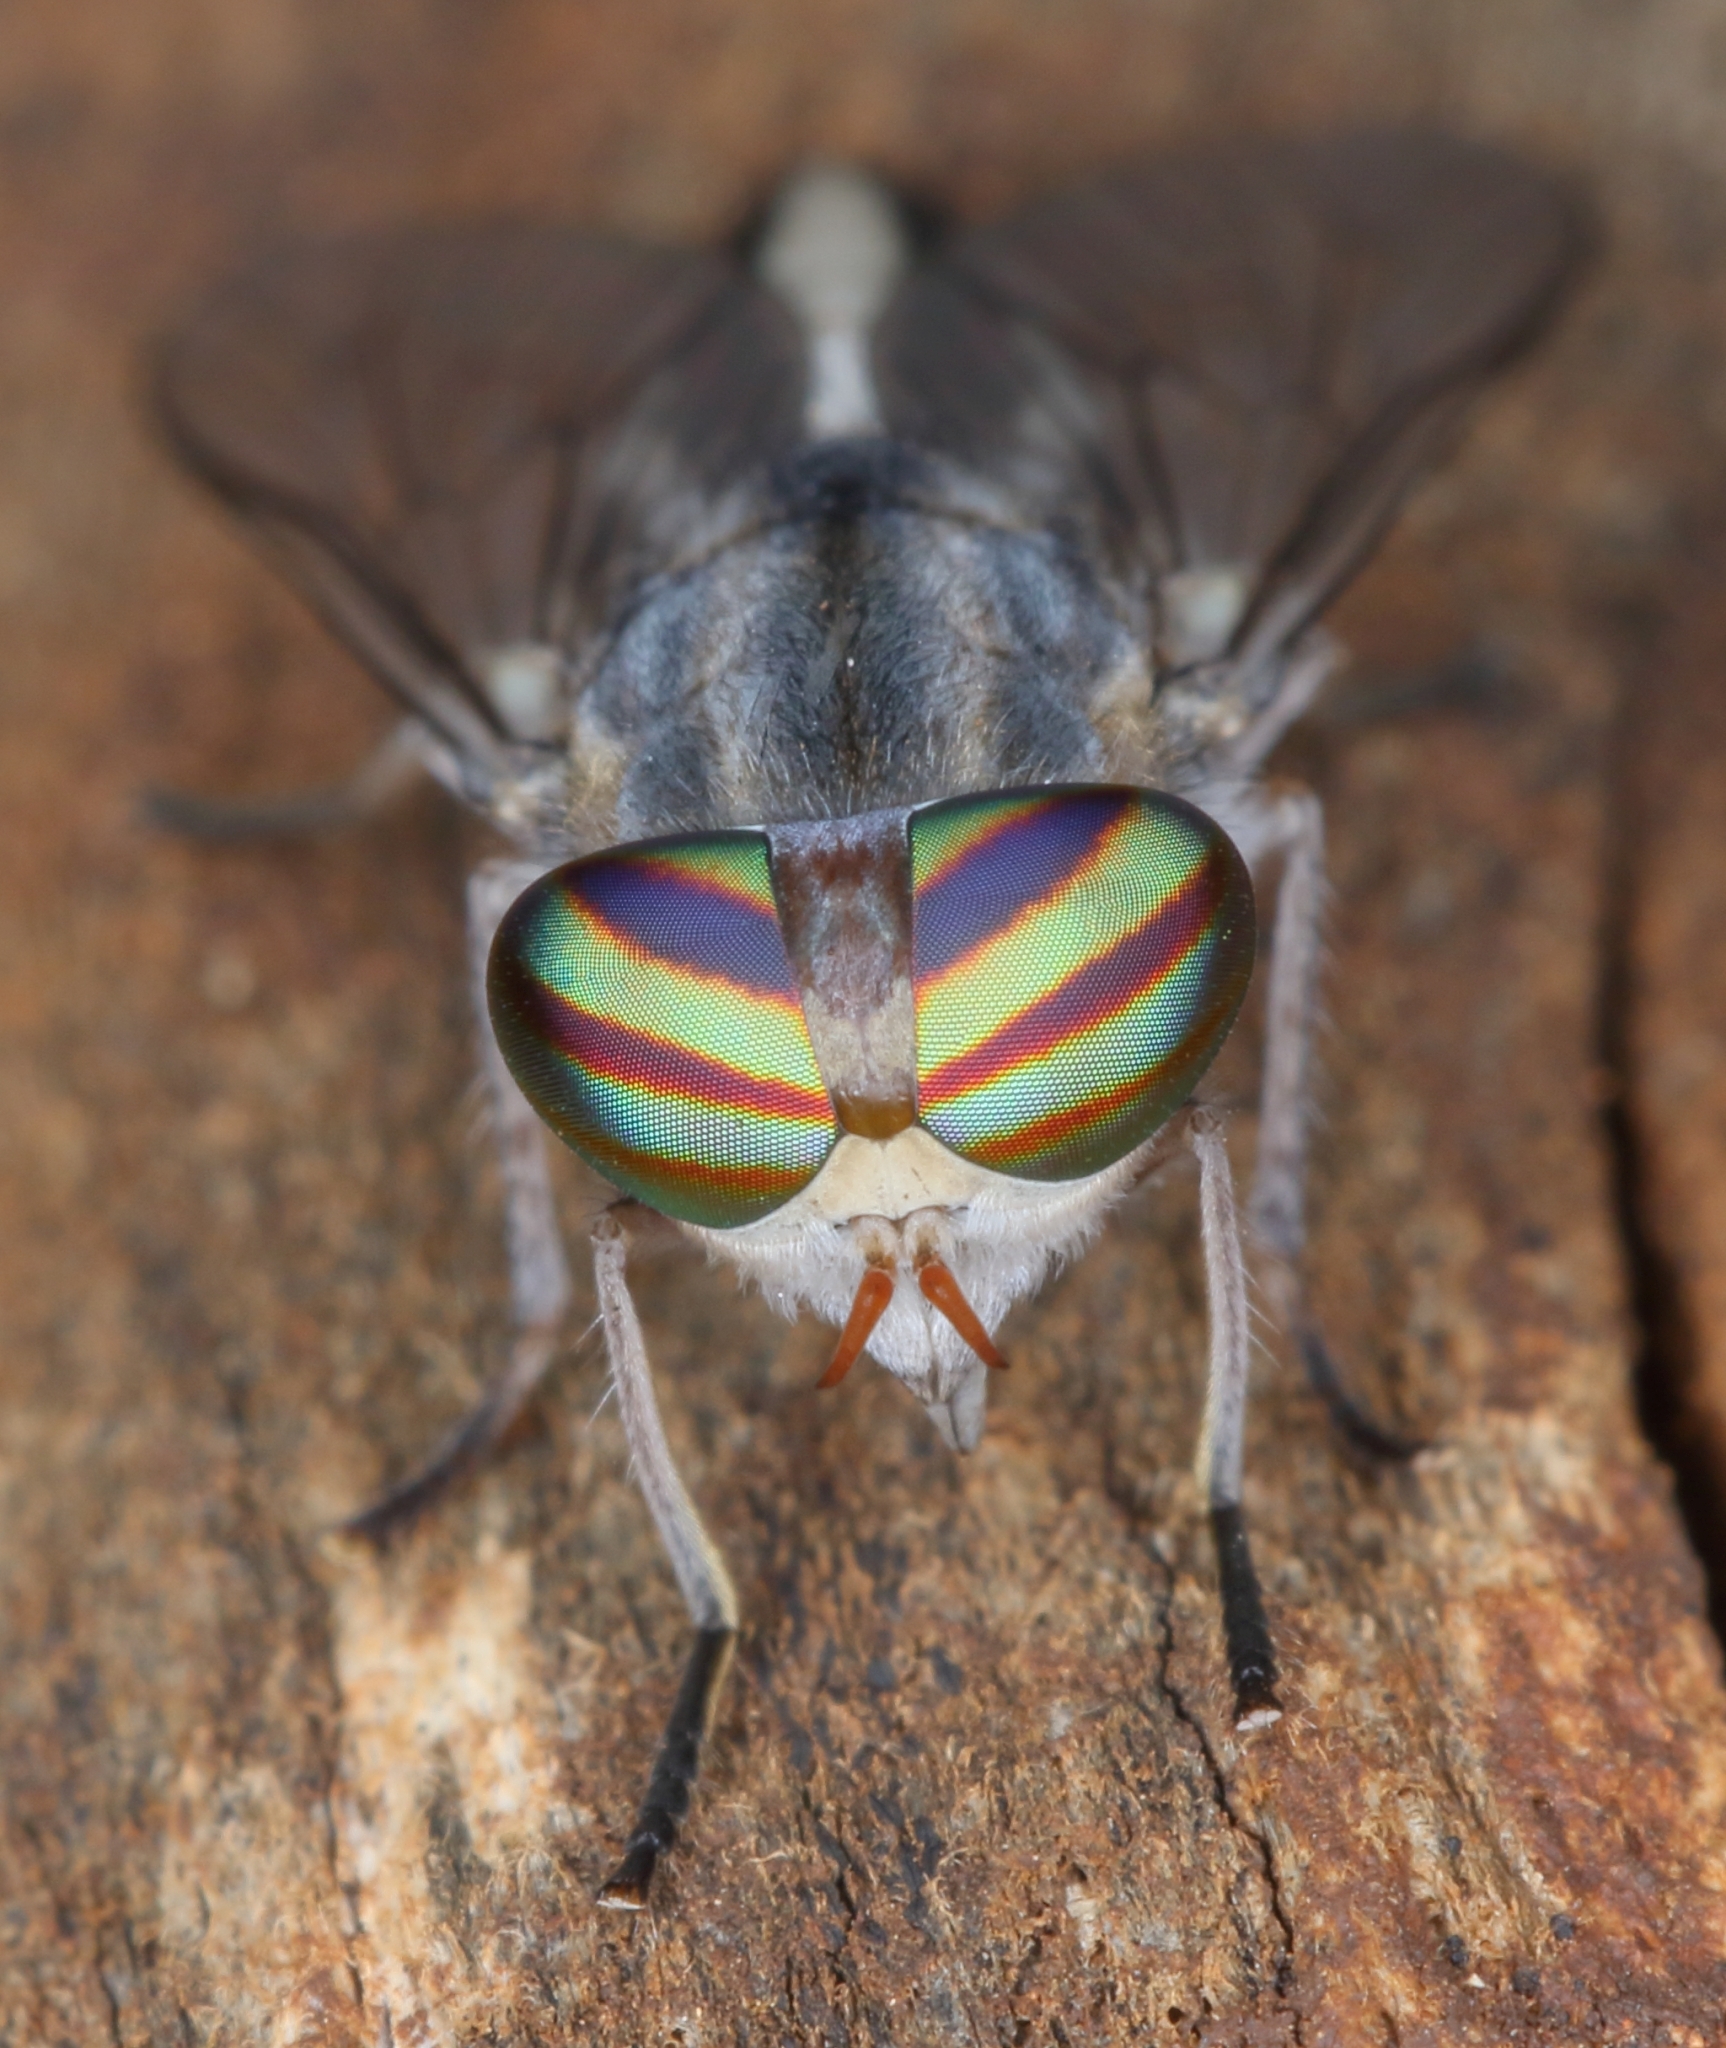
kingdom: Animalia
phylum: Arthropoda
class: Insecta
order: Diptera
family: Tabanidae
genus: Tabanus
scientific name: Tabanus gratus
